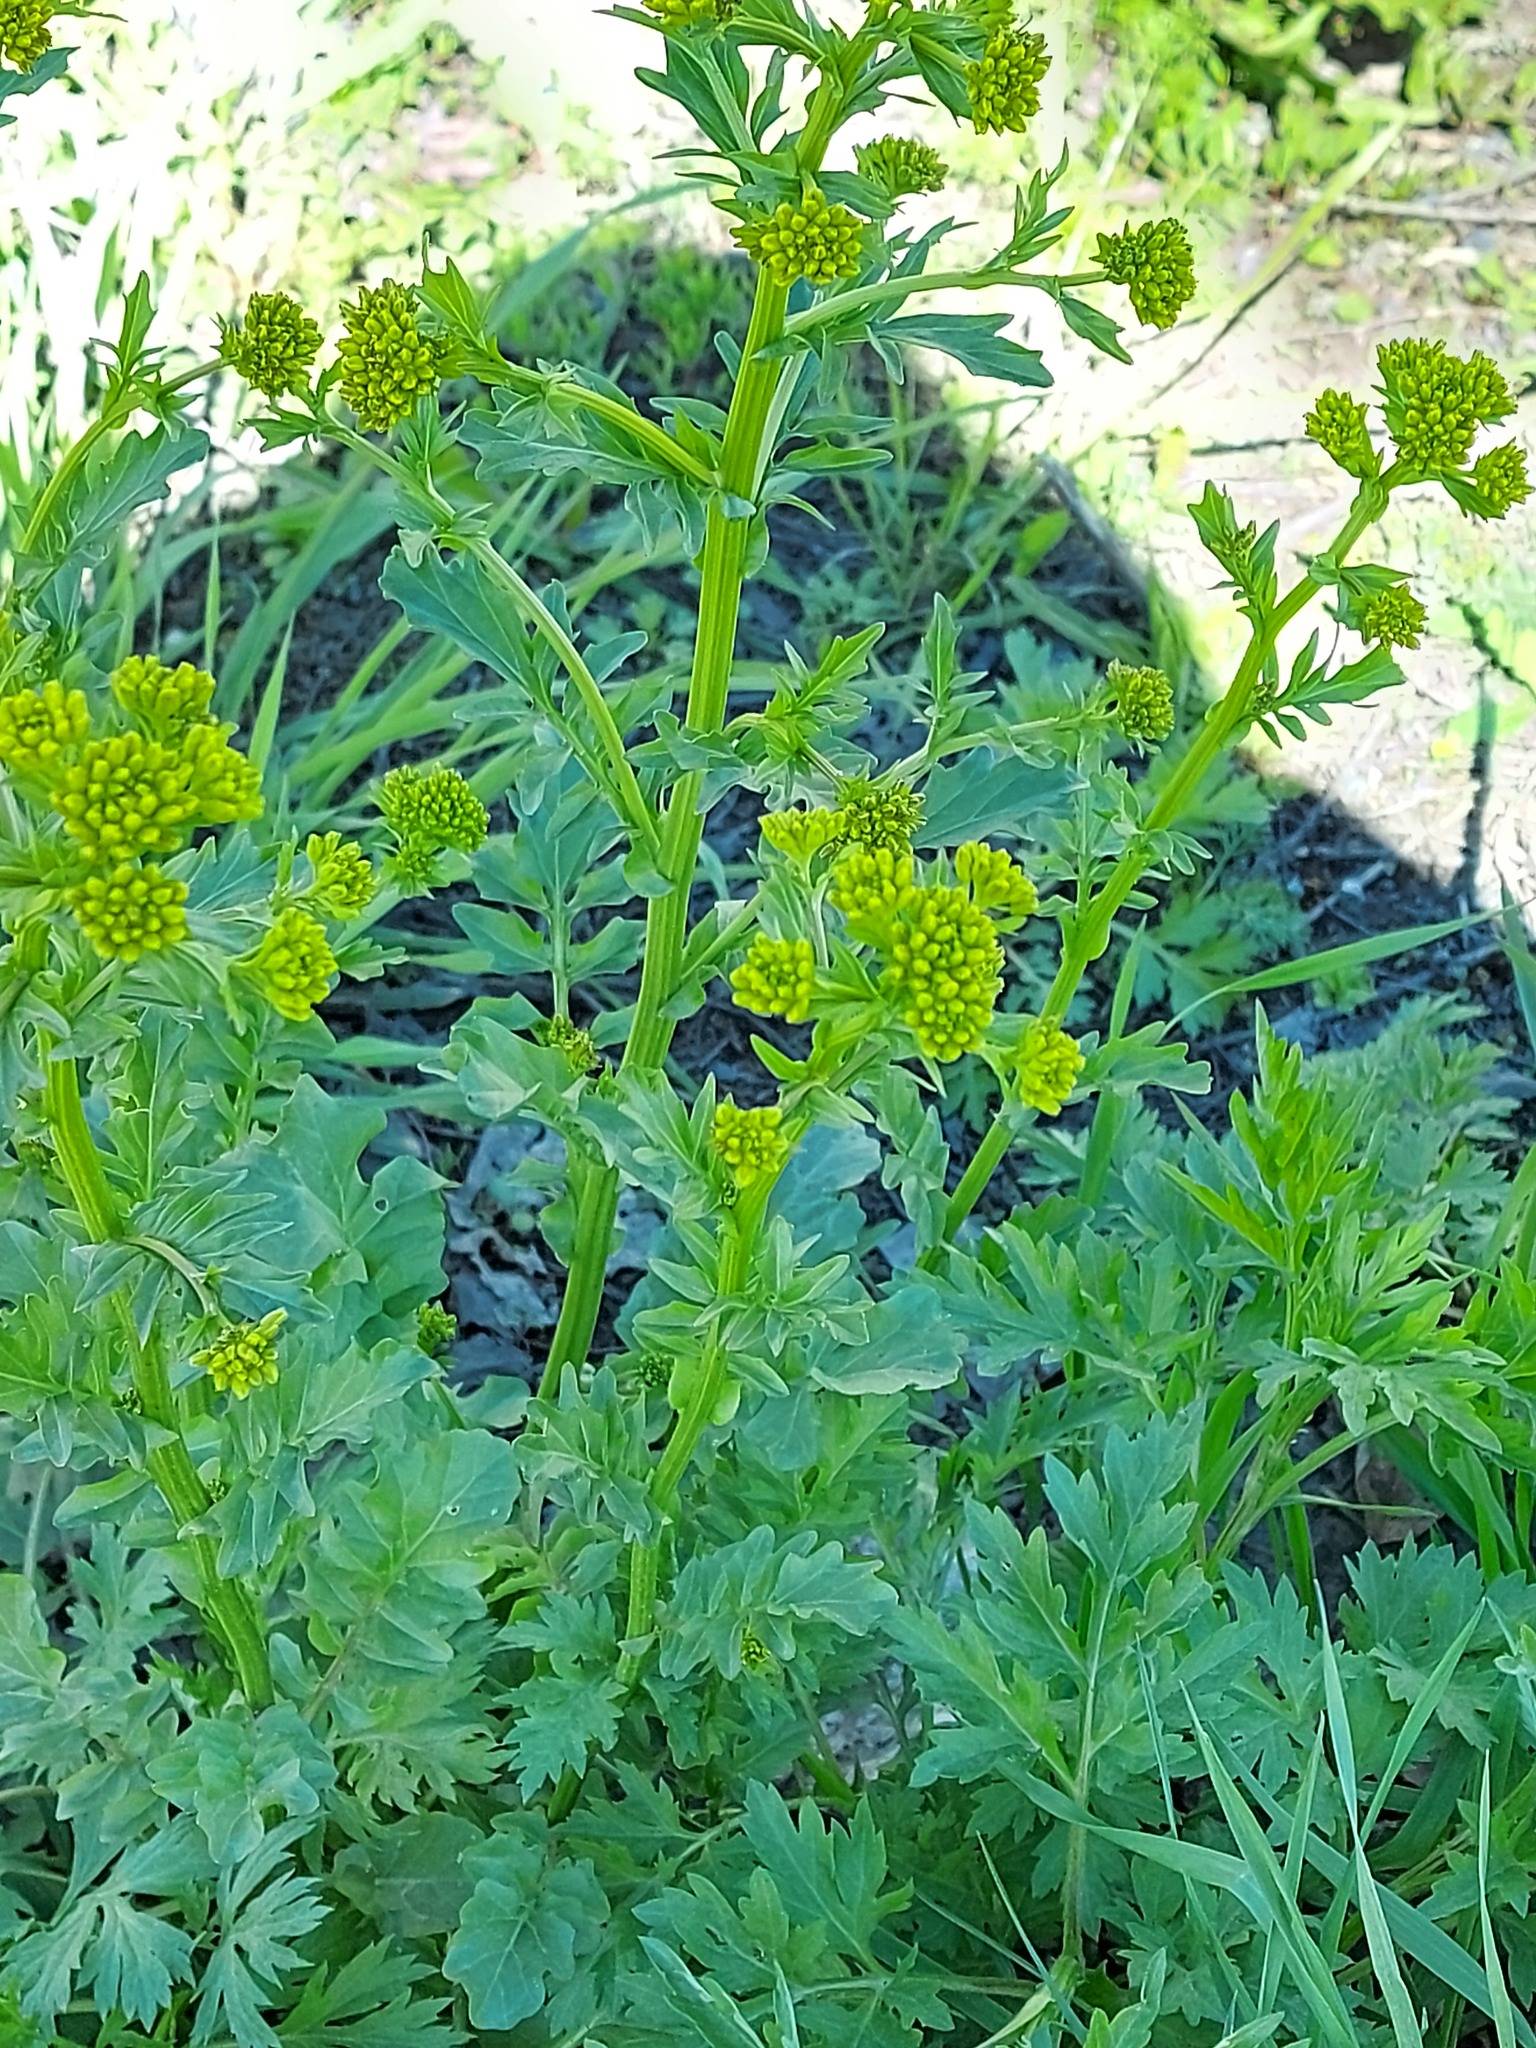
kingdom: Plantae
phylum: Tracheophyta
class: Magnoliopsida
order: Brassicales
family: Brassicaceae
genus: Barbarea
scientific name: Barbarea vulgaris
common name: Cressy-greens
